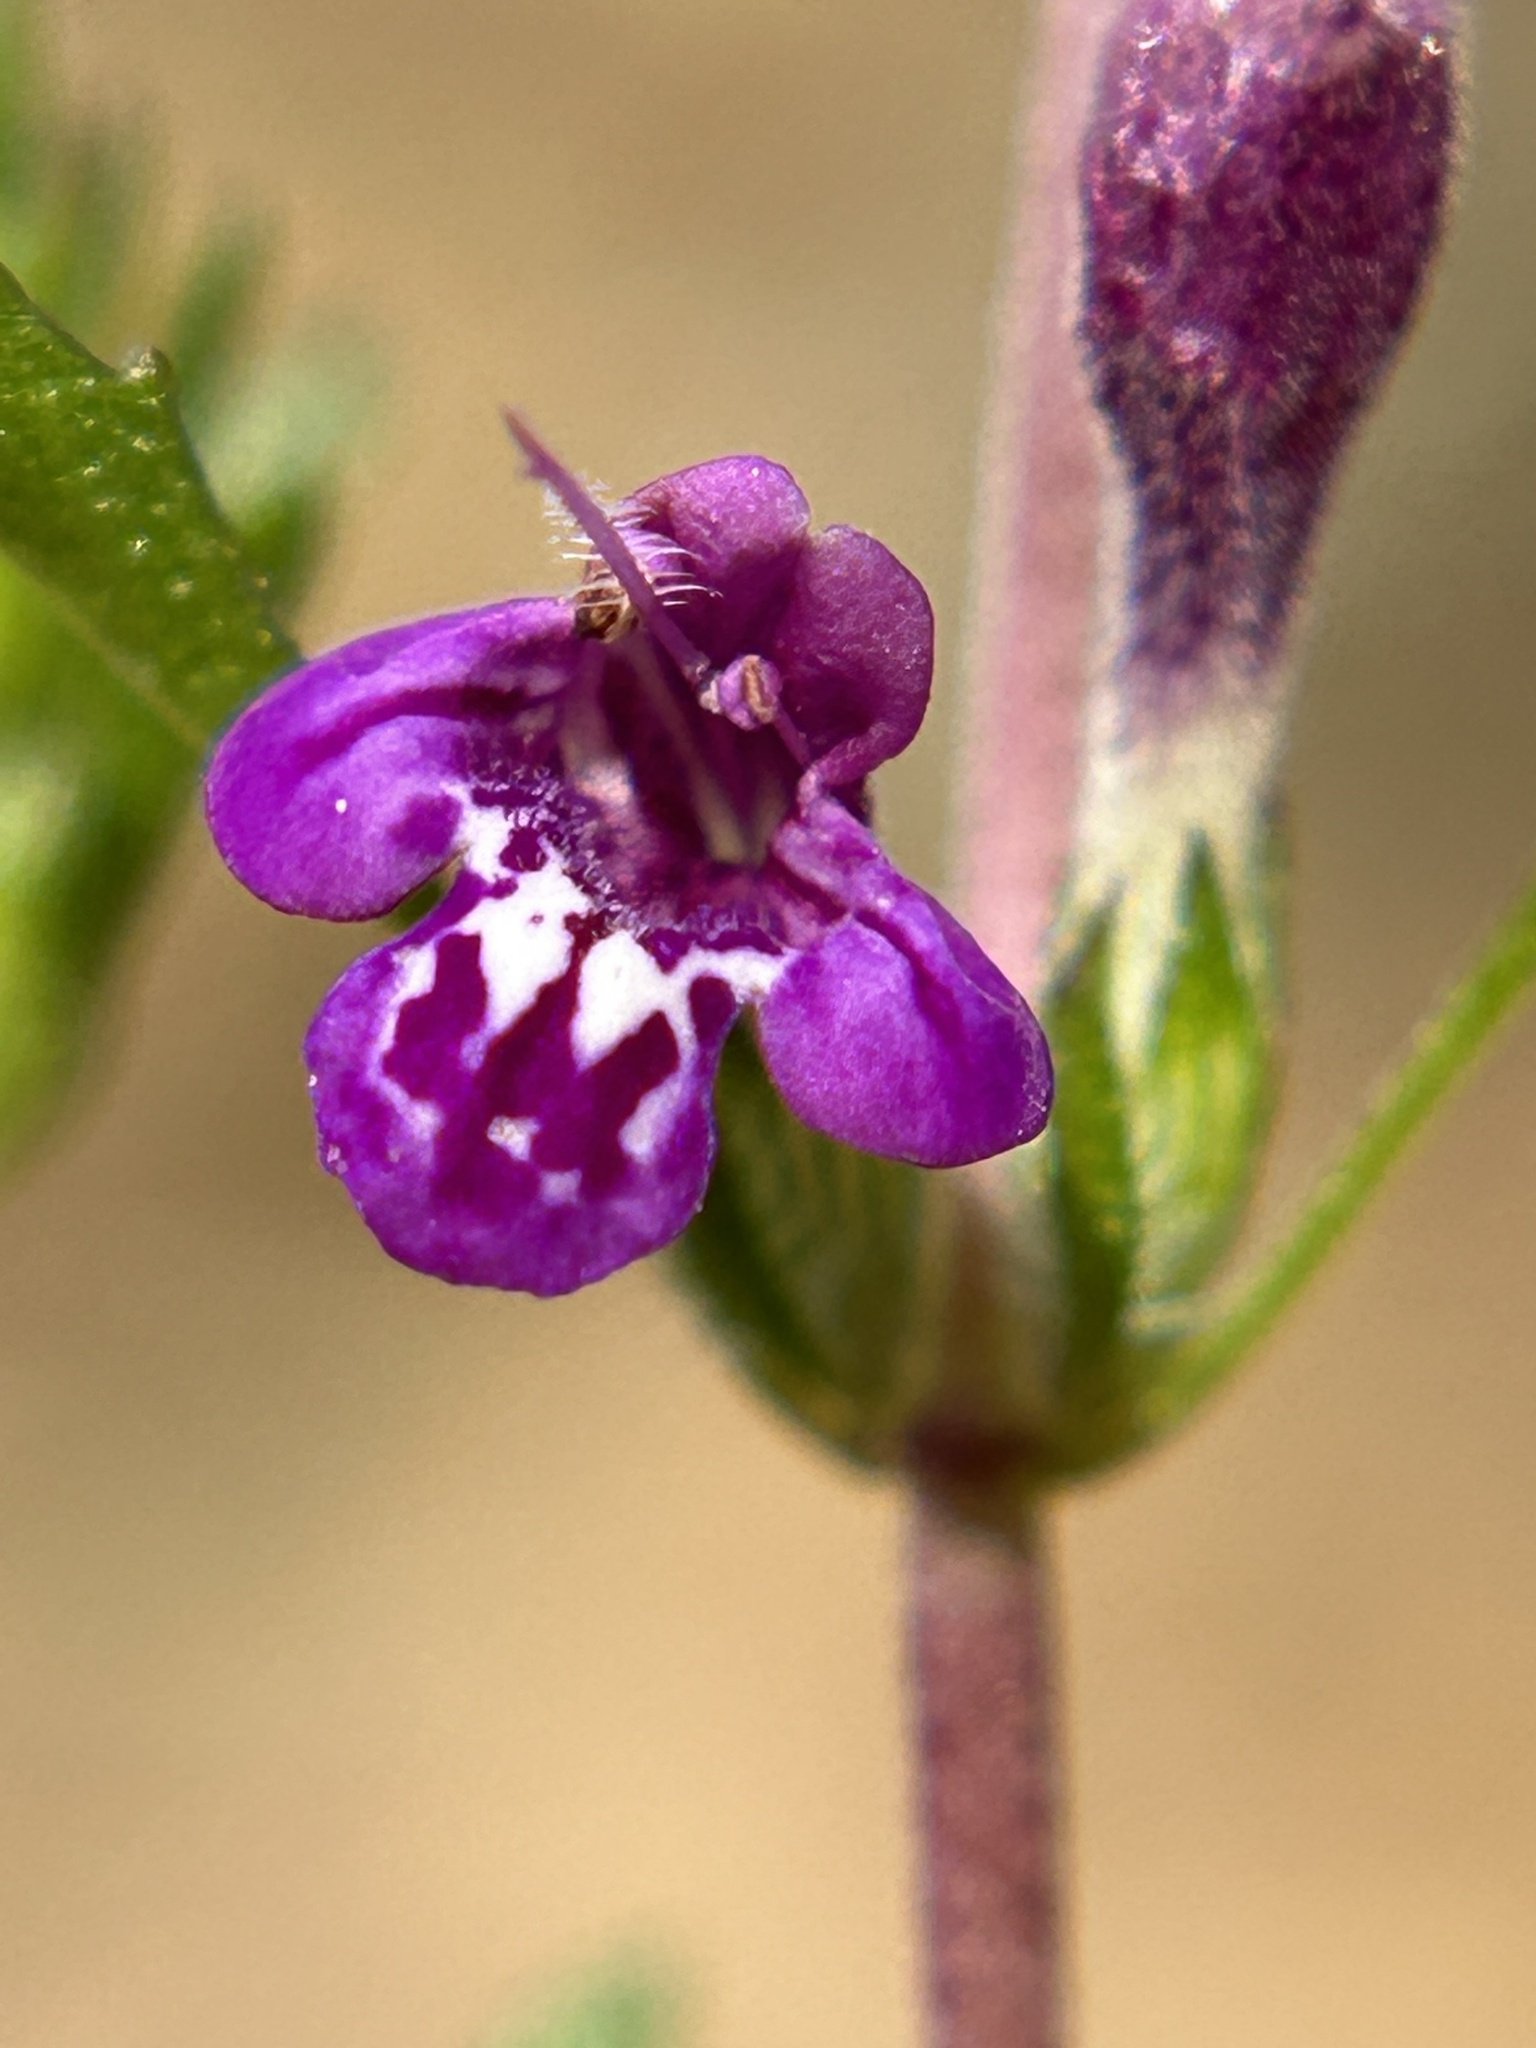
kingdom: Plantae
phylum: Tracheophyta
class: Magnoliopsida
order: Lamiales
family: Lamiaceae
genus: Pogogyne
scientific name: Pogogyne clareana
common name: Santa lucia-mint
